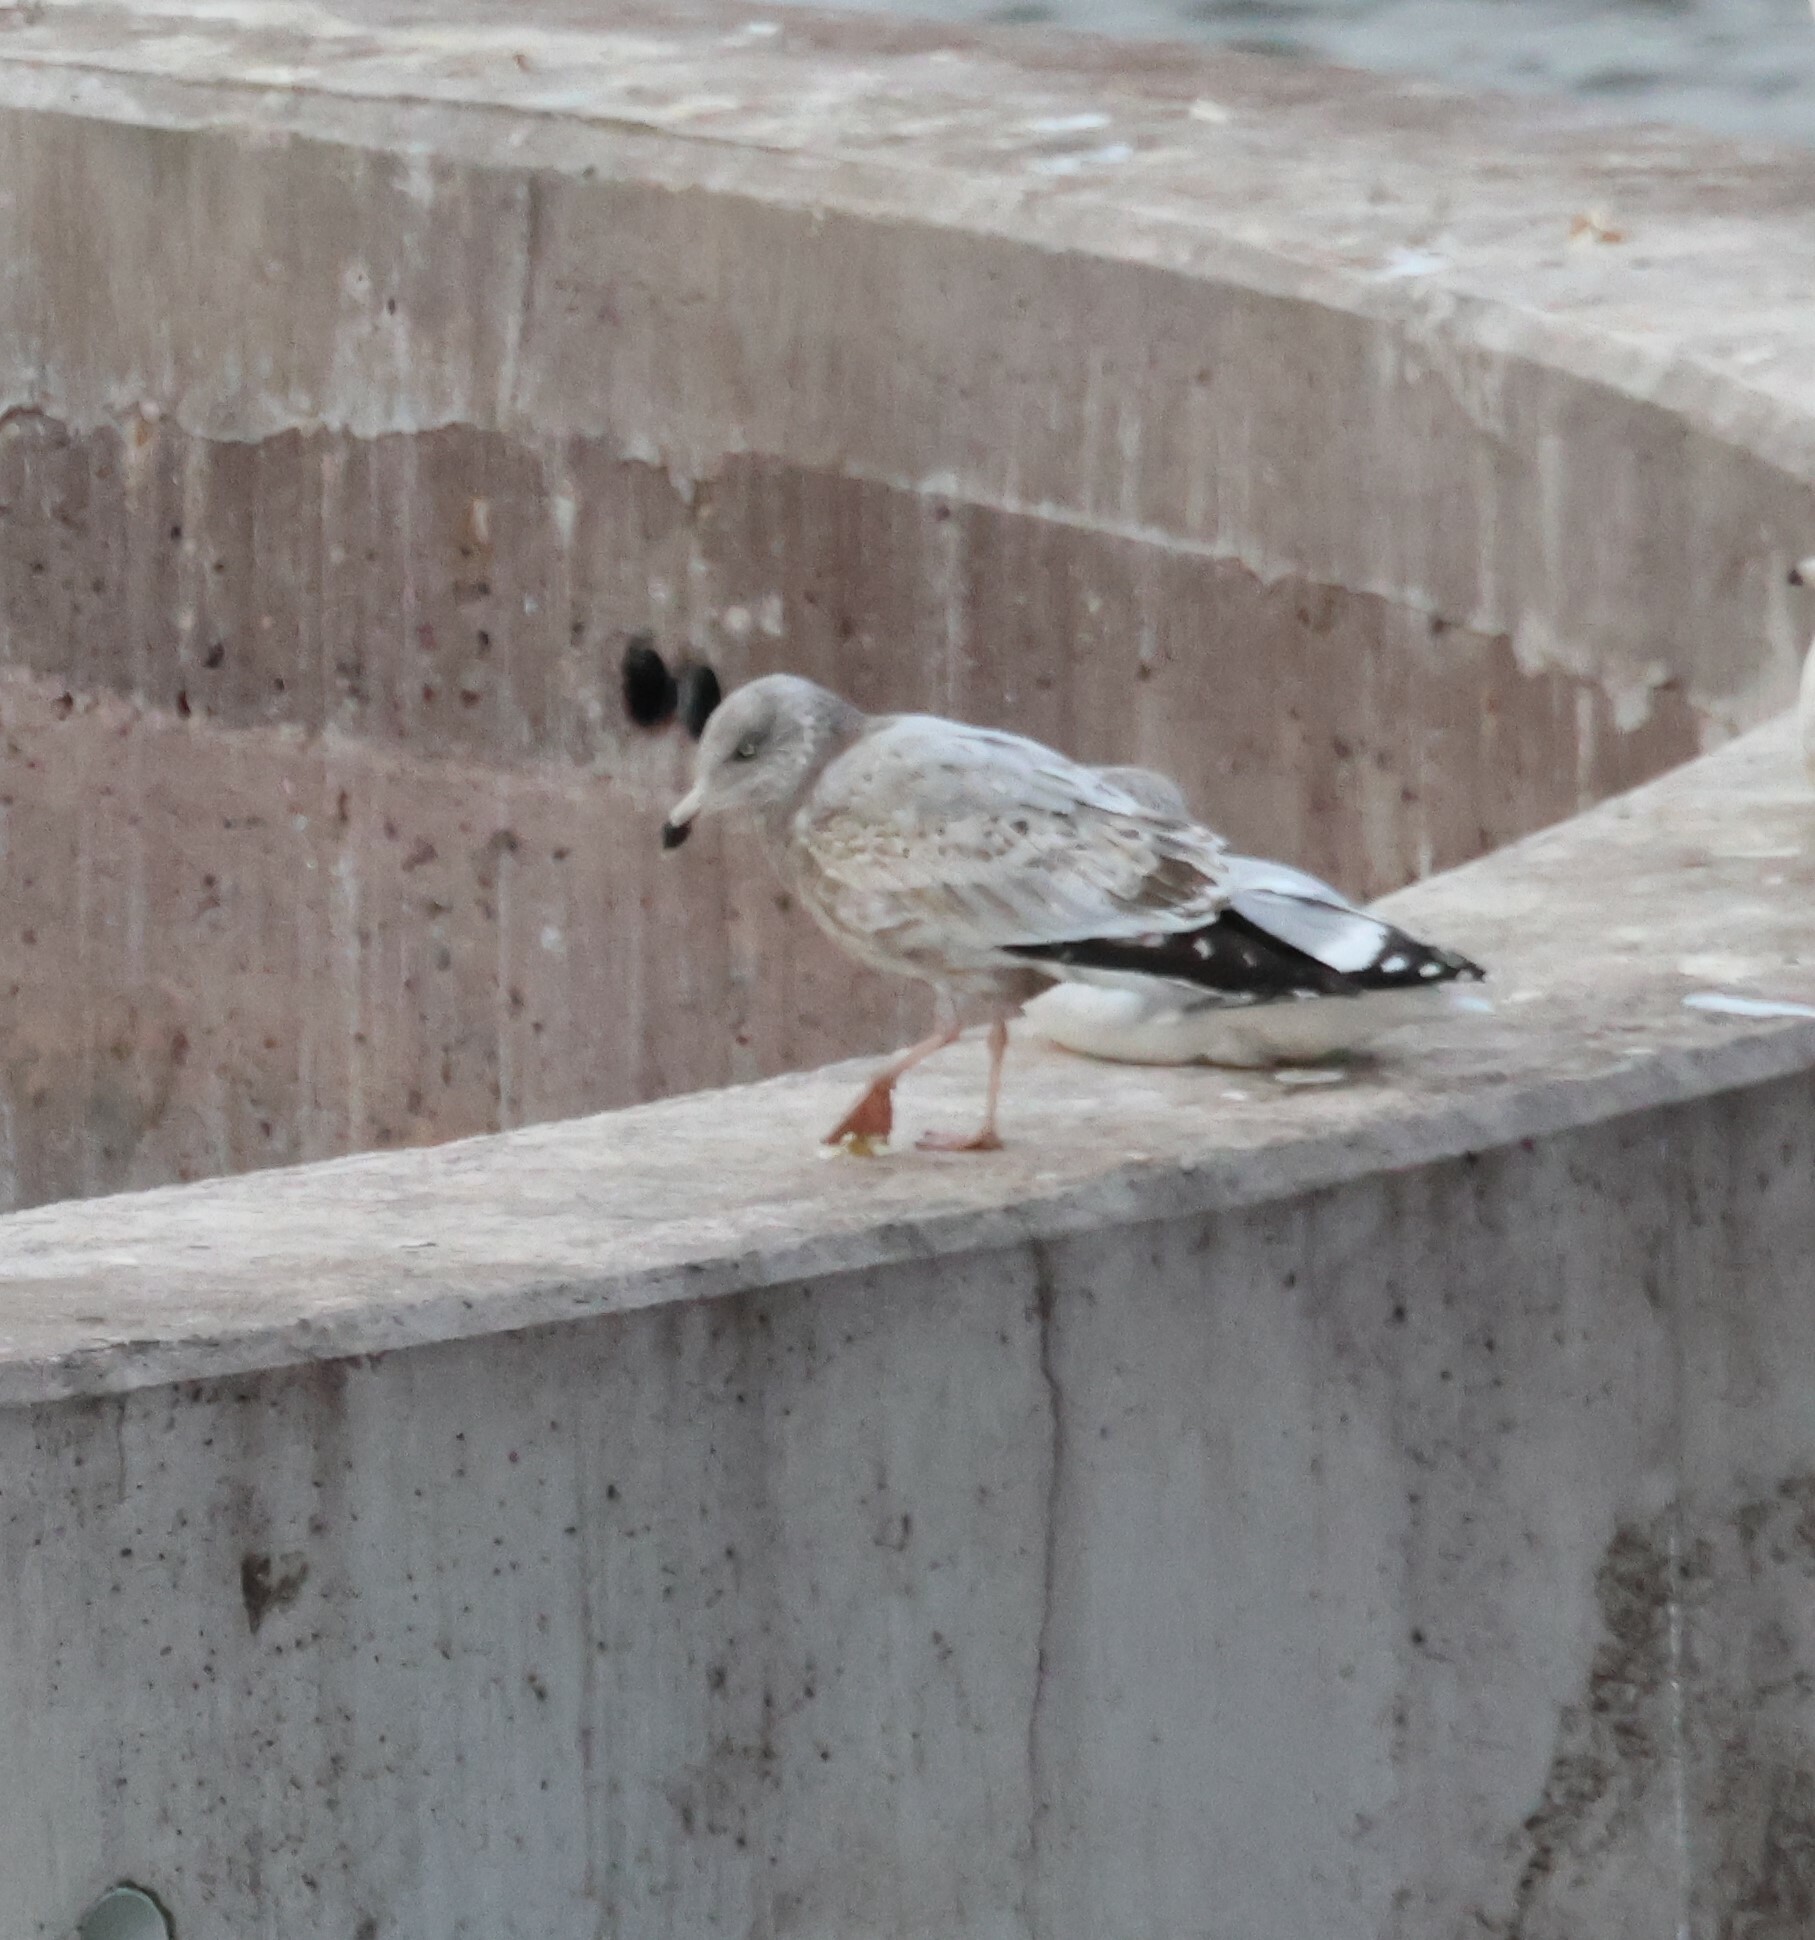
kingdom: Animalia
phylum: Chordata
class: Aves
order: Charadriiformes
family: Laridae
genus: Larus
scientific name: Larus argentatus
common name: Herring gull
